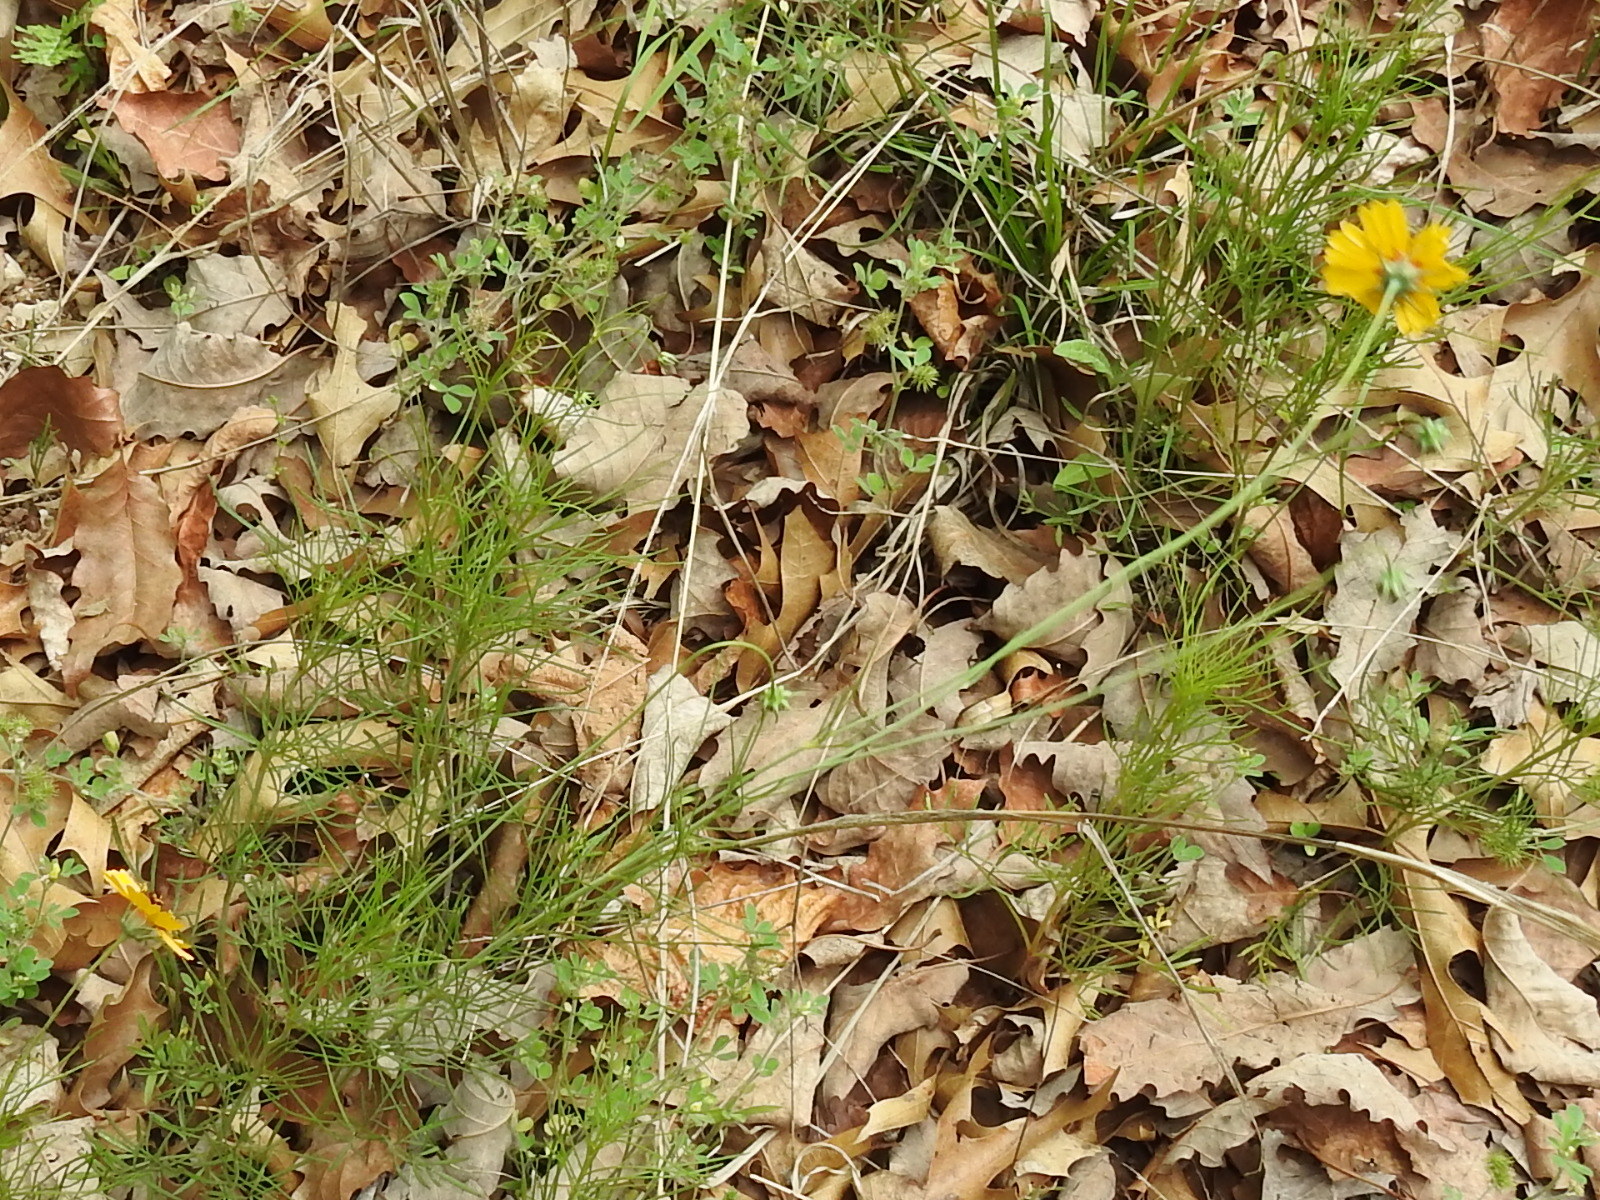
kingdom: Plantae
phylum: Tracheophyta
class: Magnoliopsida
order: Asterales
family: Asteraceae
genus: Thelesperma
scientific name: Thelesperma filifolium
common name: Stiff greenthread
